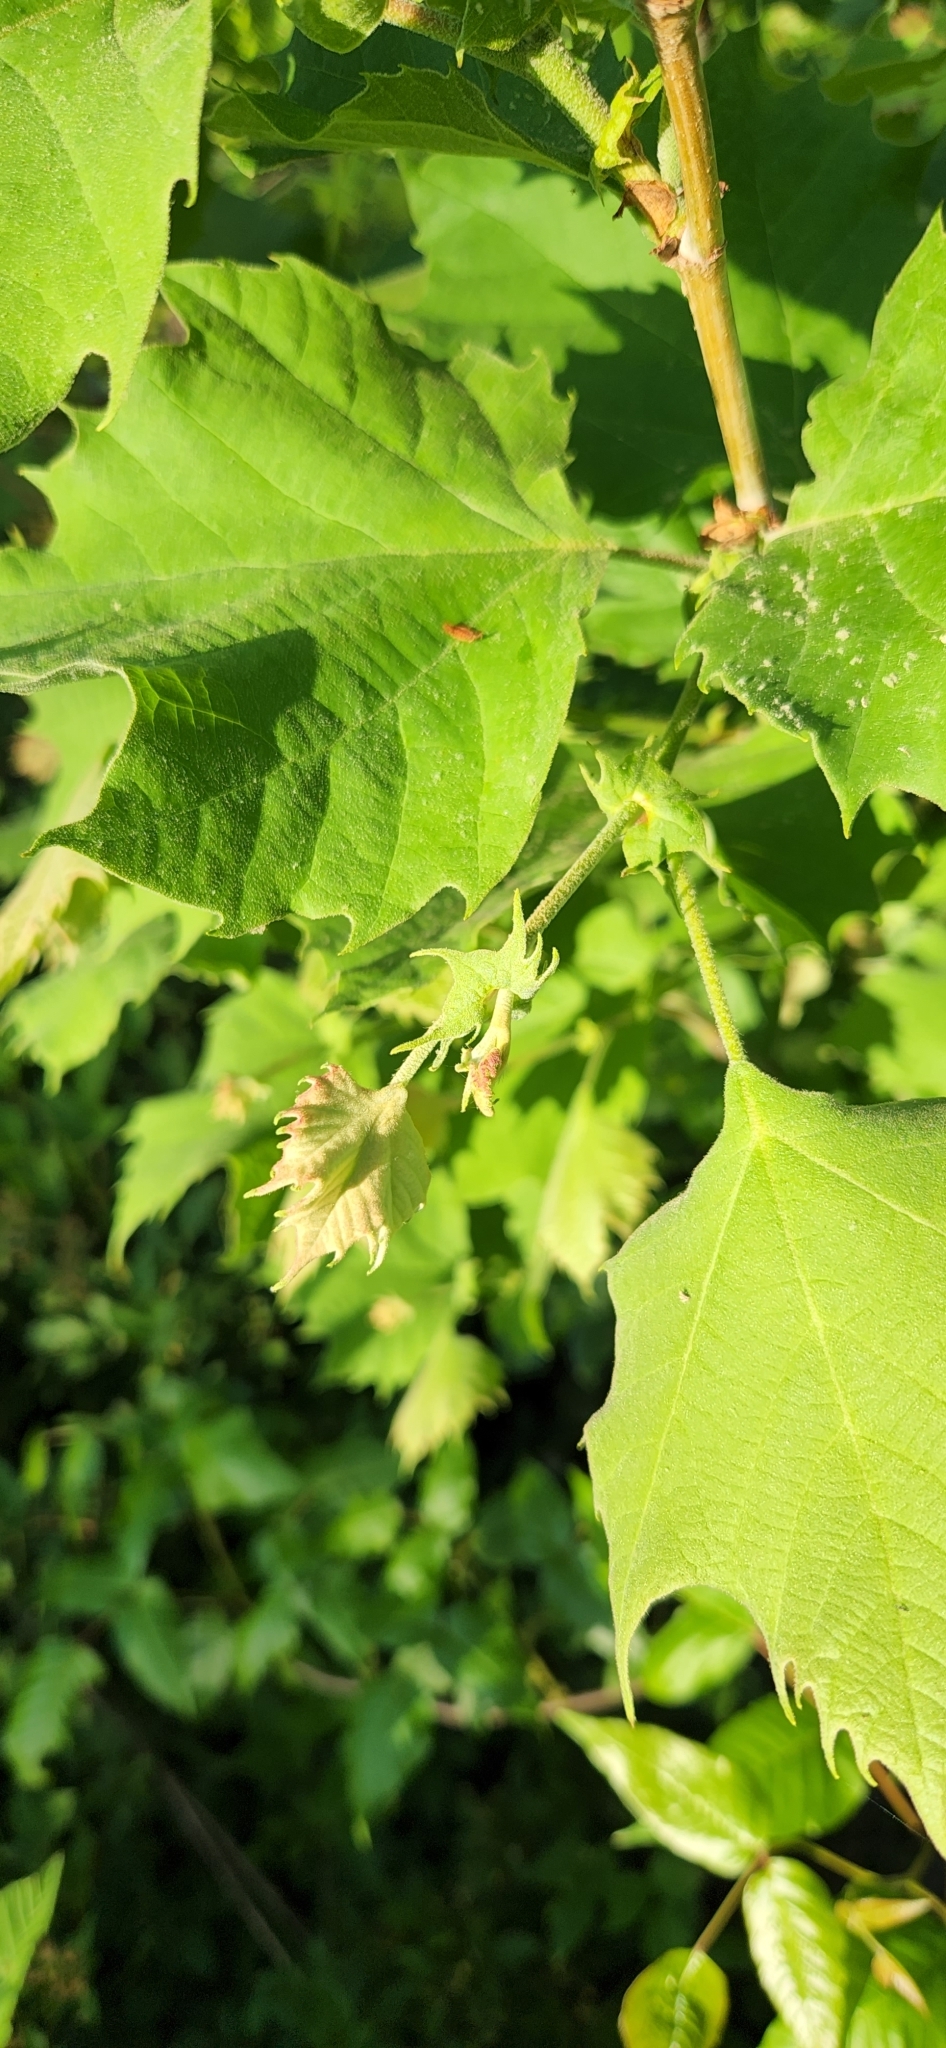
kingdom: Plantae
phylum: Tracheophyta
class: Magnoliopsida
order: Proteales
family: Platanaceae
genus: Platanus
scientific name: Platanus occidentalis
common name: American sycamore
